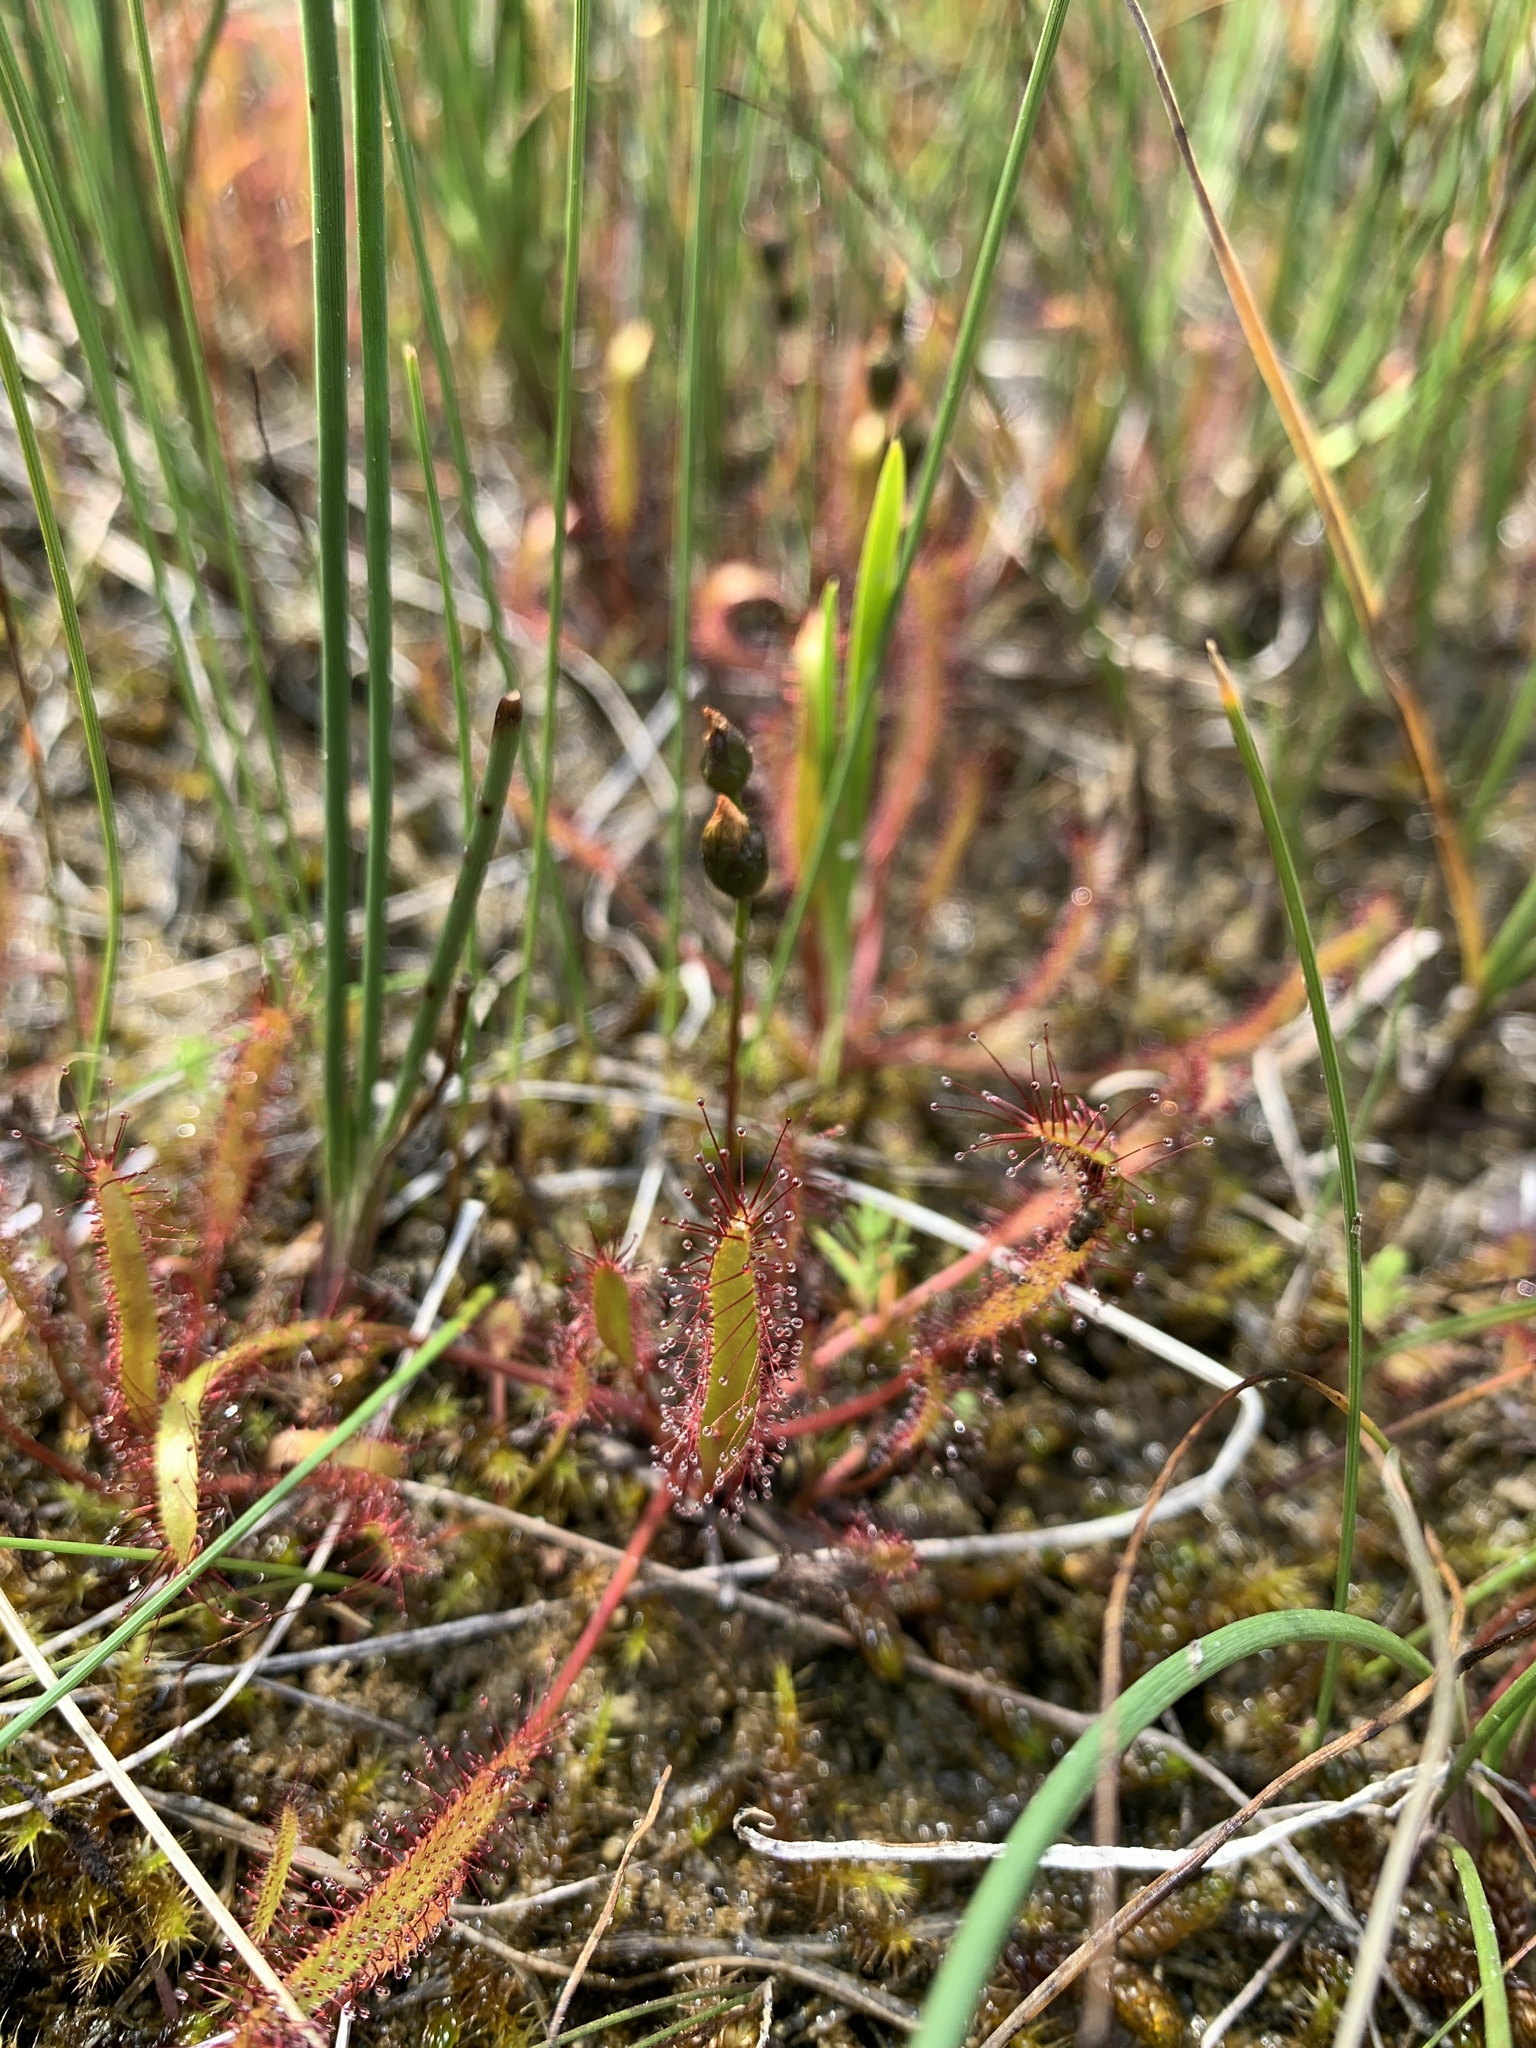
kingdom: Plantae
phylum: Tracheophyta
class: Magnoliopsida
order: Caryophyllales
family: Droseraceae
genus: Drosera
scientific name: Drosera linearis
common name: Linear-leaved sundew
